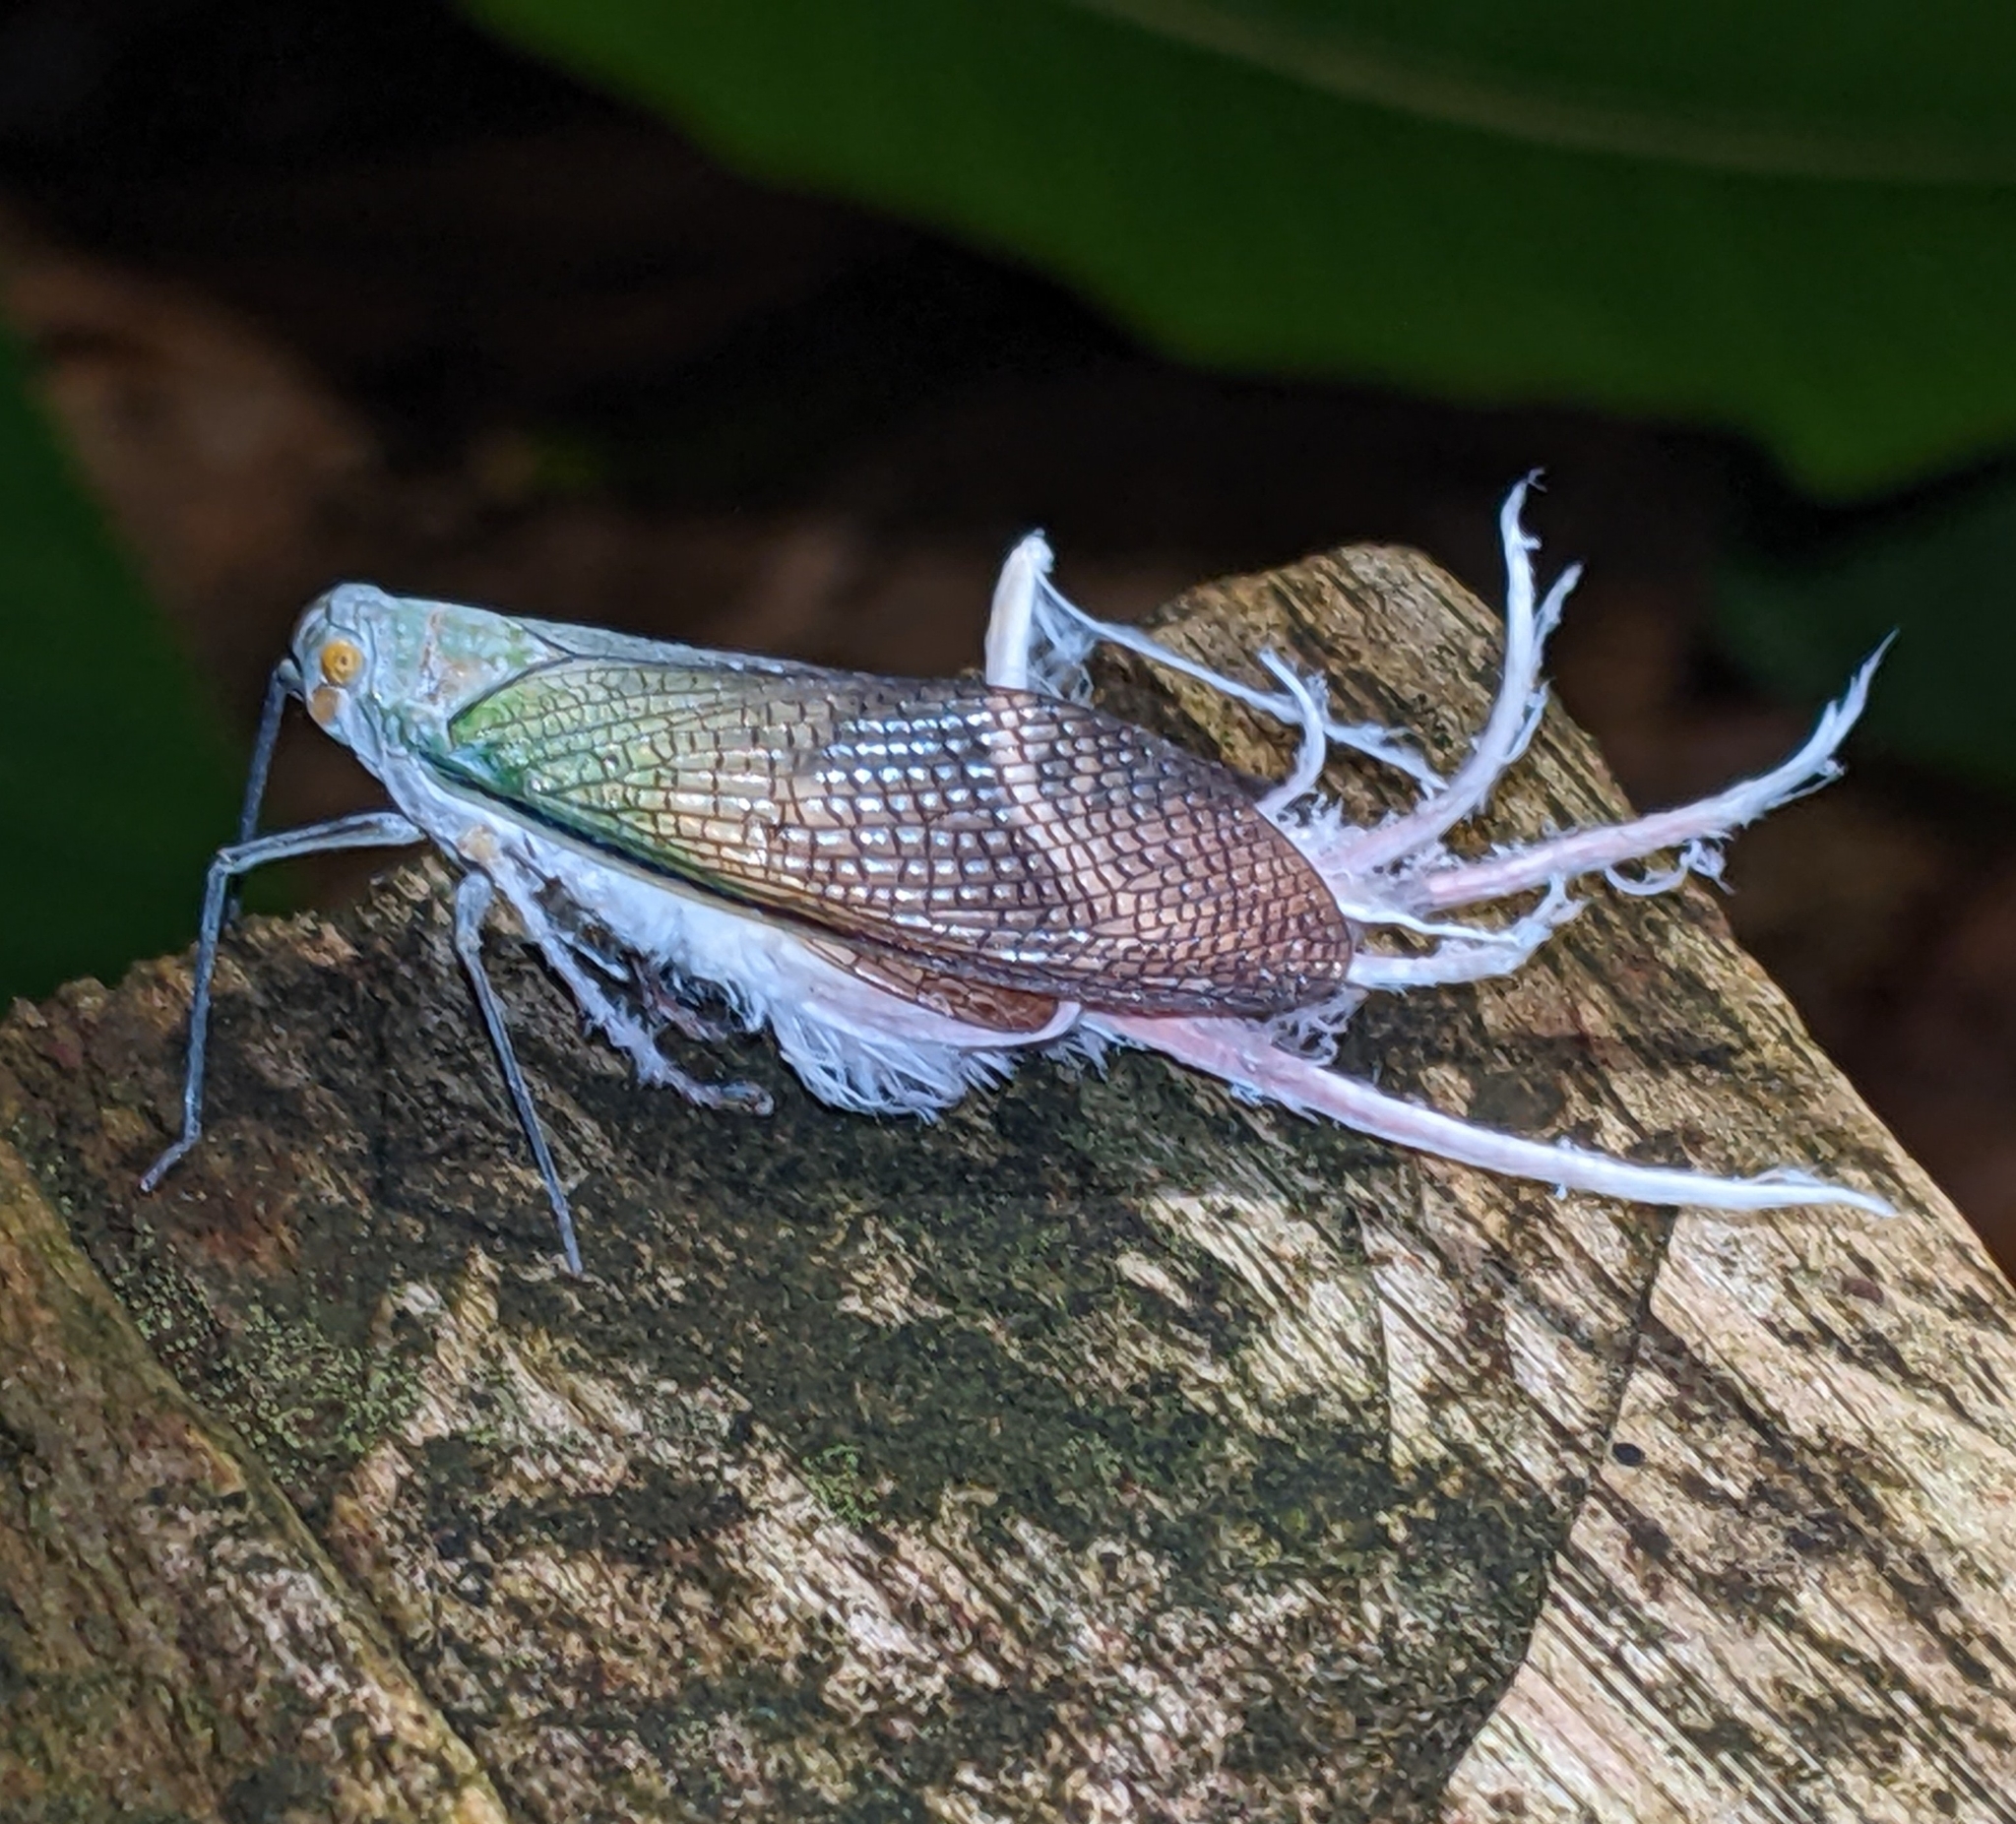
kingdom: Animalia
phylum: Arthropoda
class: Insecta
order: Hemiptera
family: Fulgoridae
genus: Pterodictya
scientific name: Pterodictya reticularis
